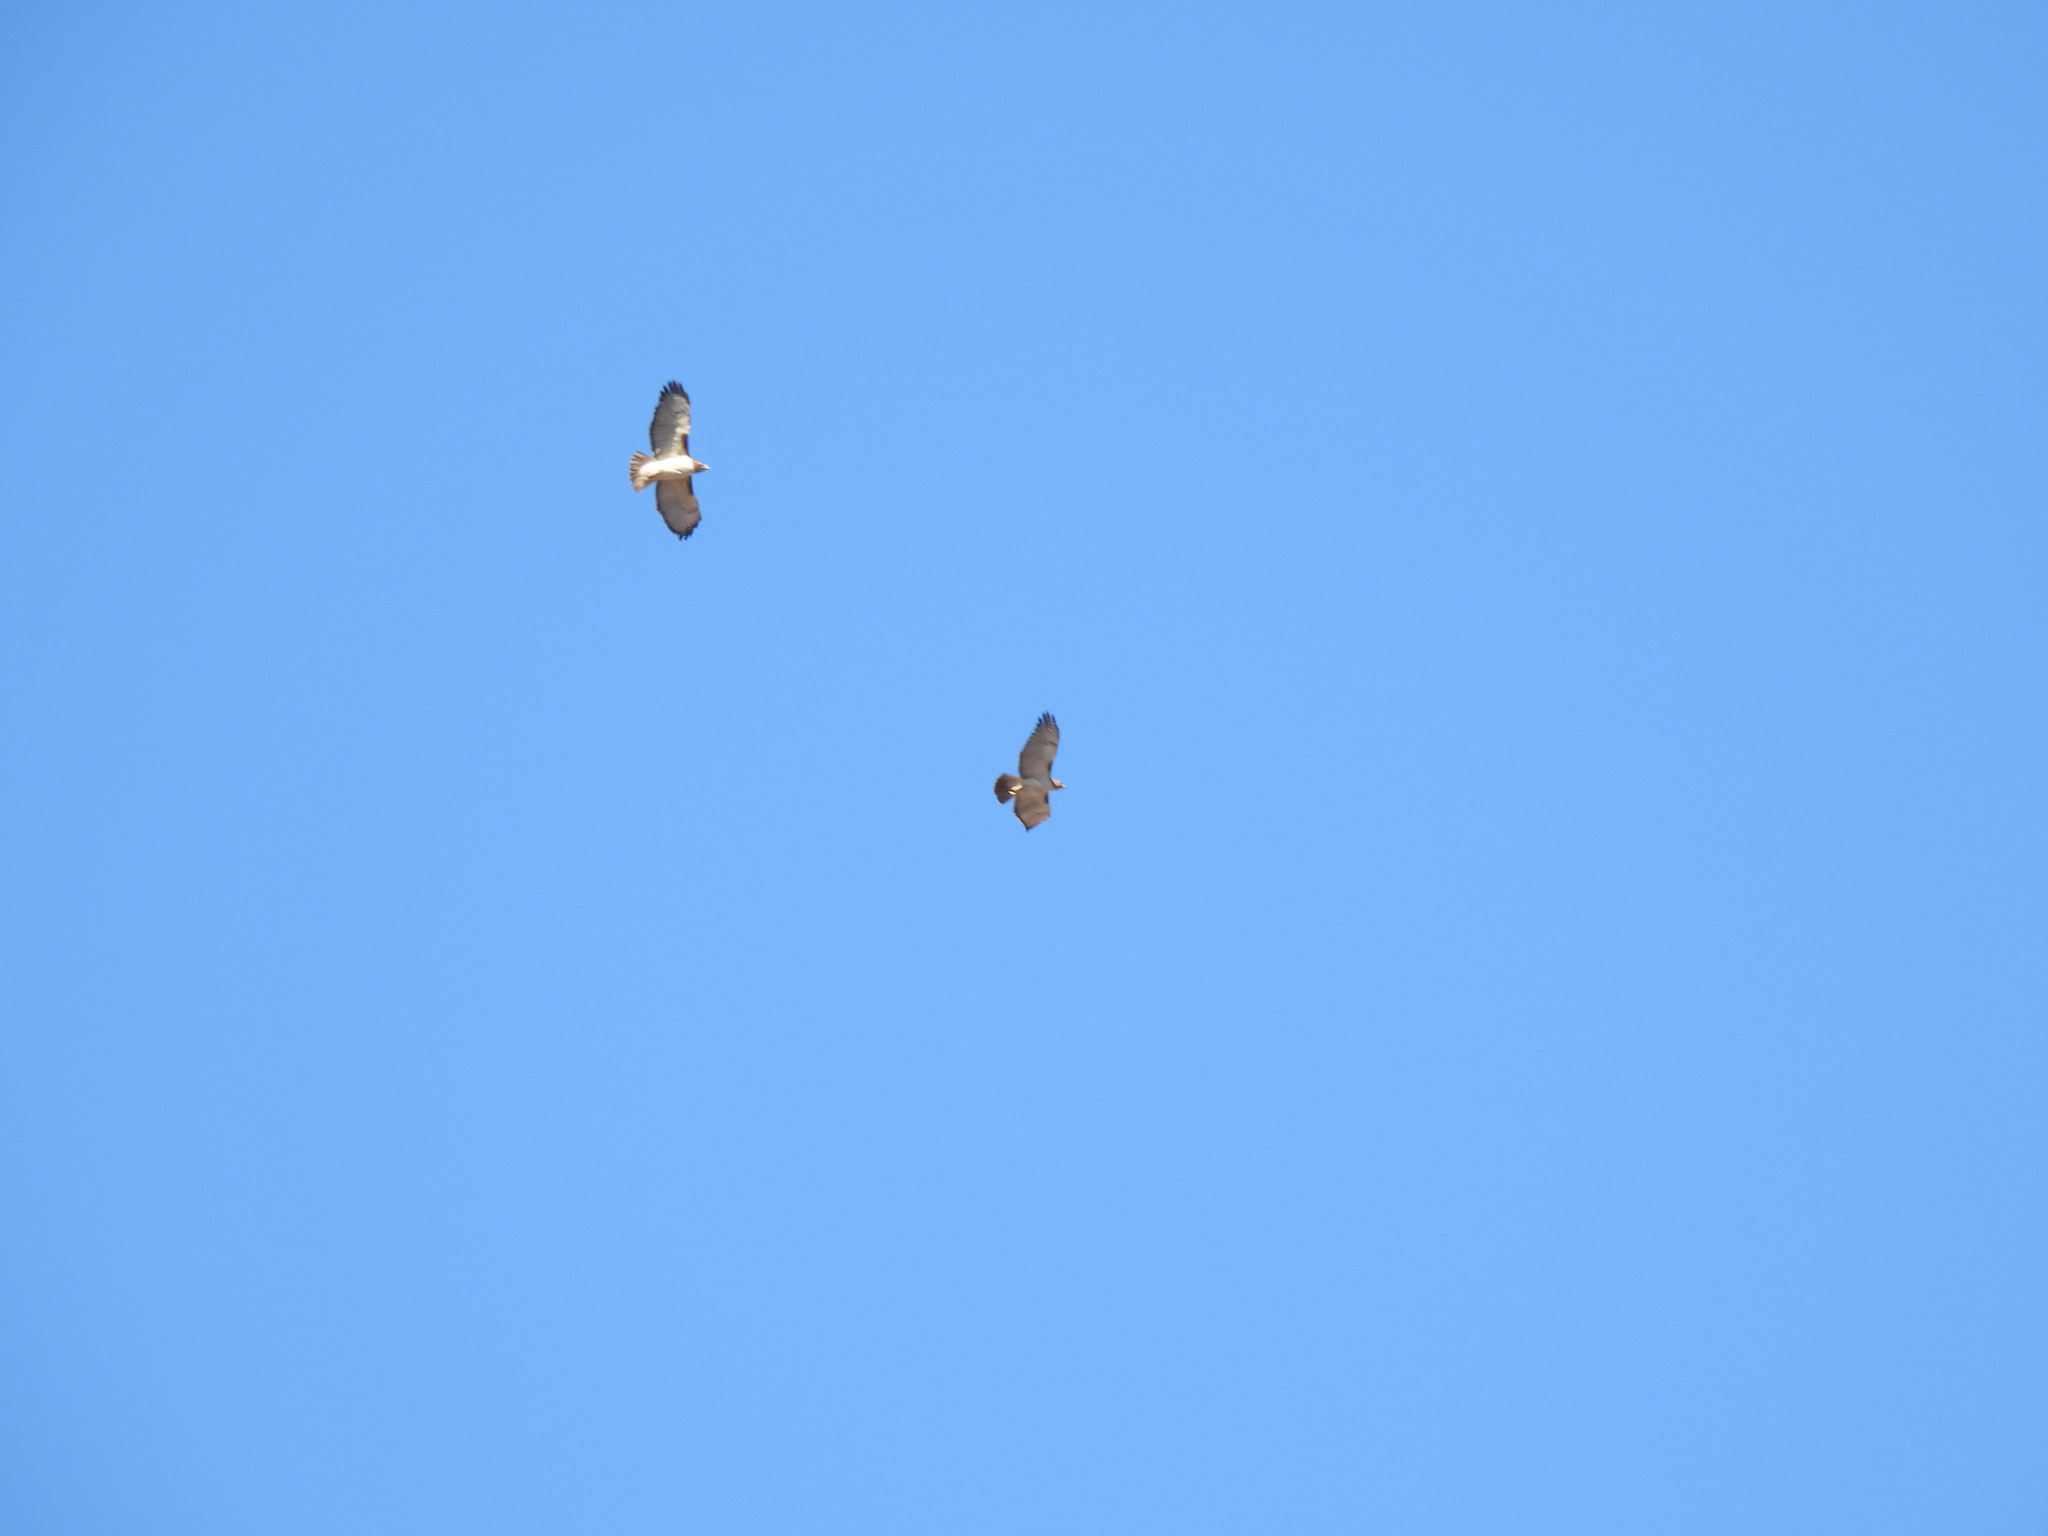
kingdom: Animalia
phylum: Chordata
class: Aves
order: Accipitriformes
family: Accipitridae
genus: Buteo
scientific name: Buteo jamaicensis
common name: Red-tailed hawk
